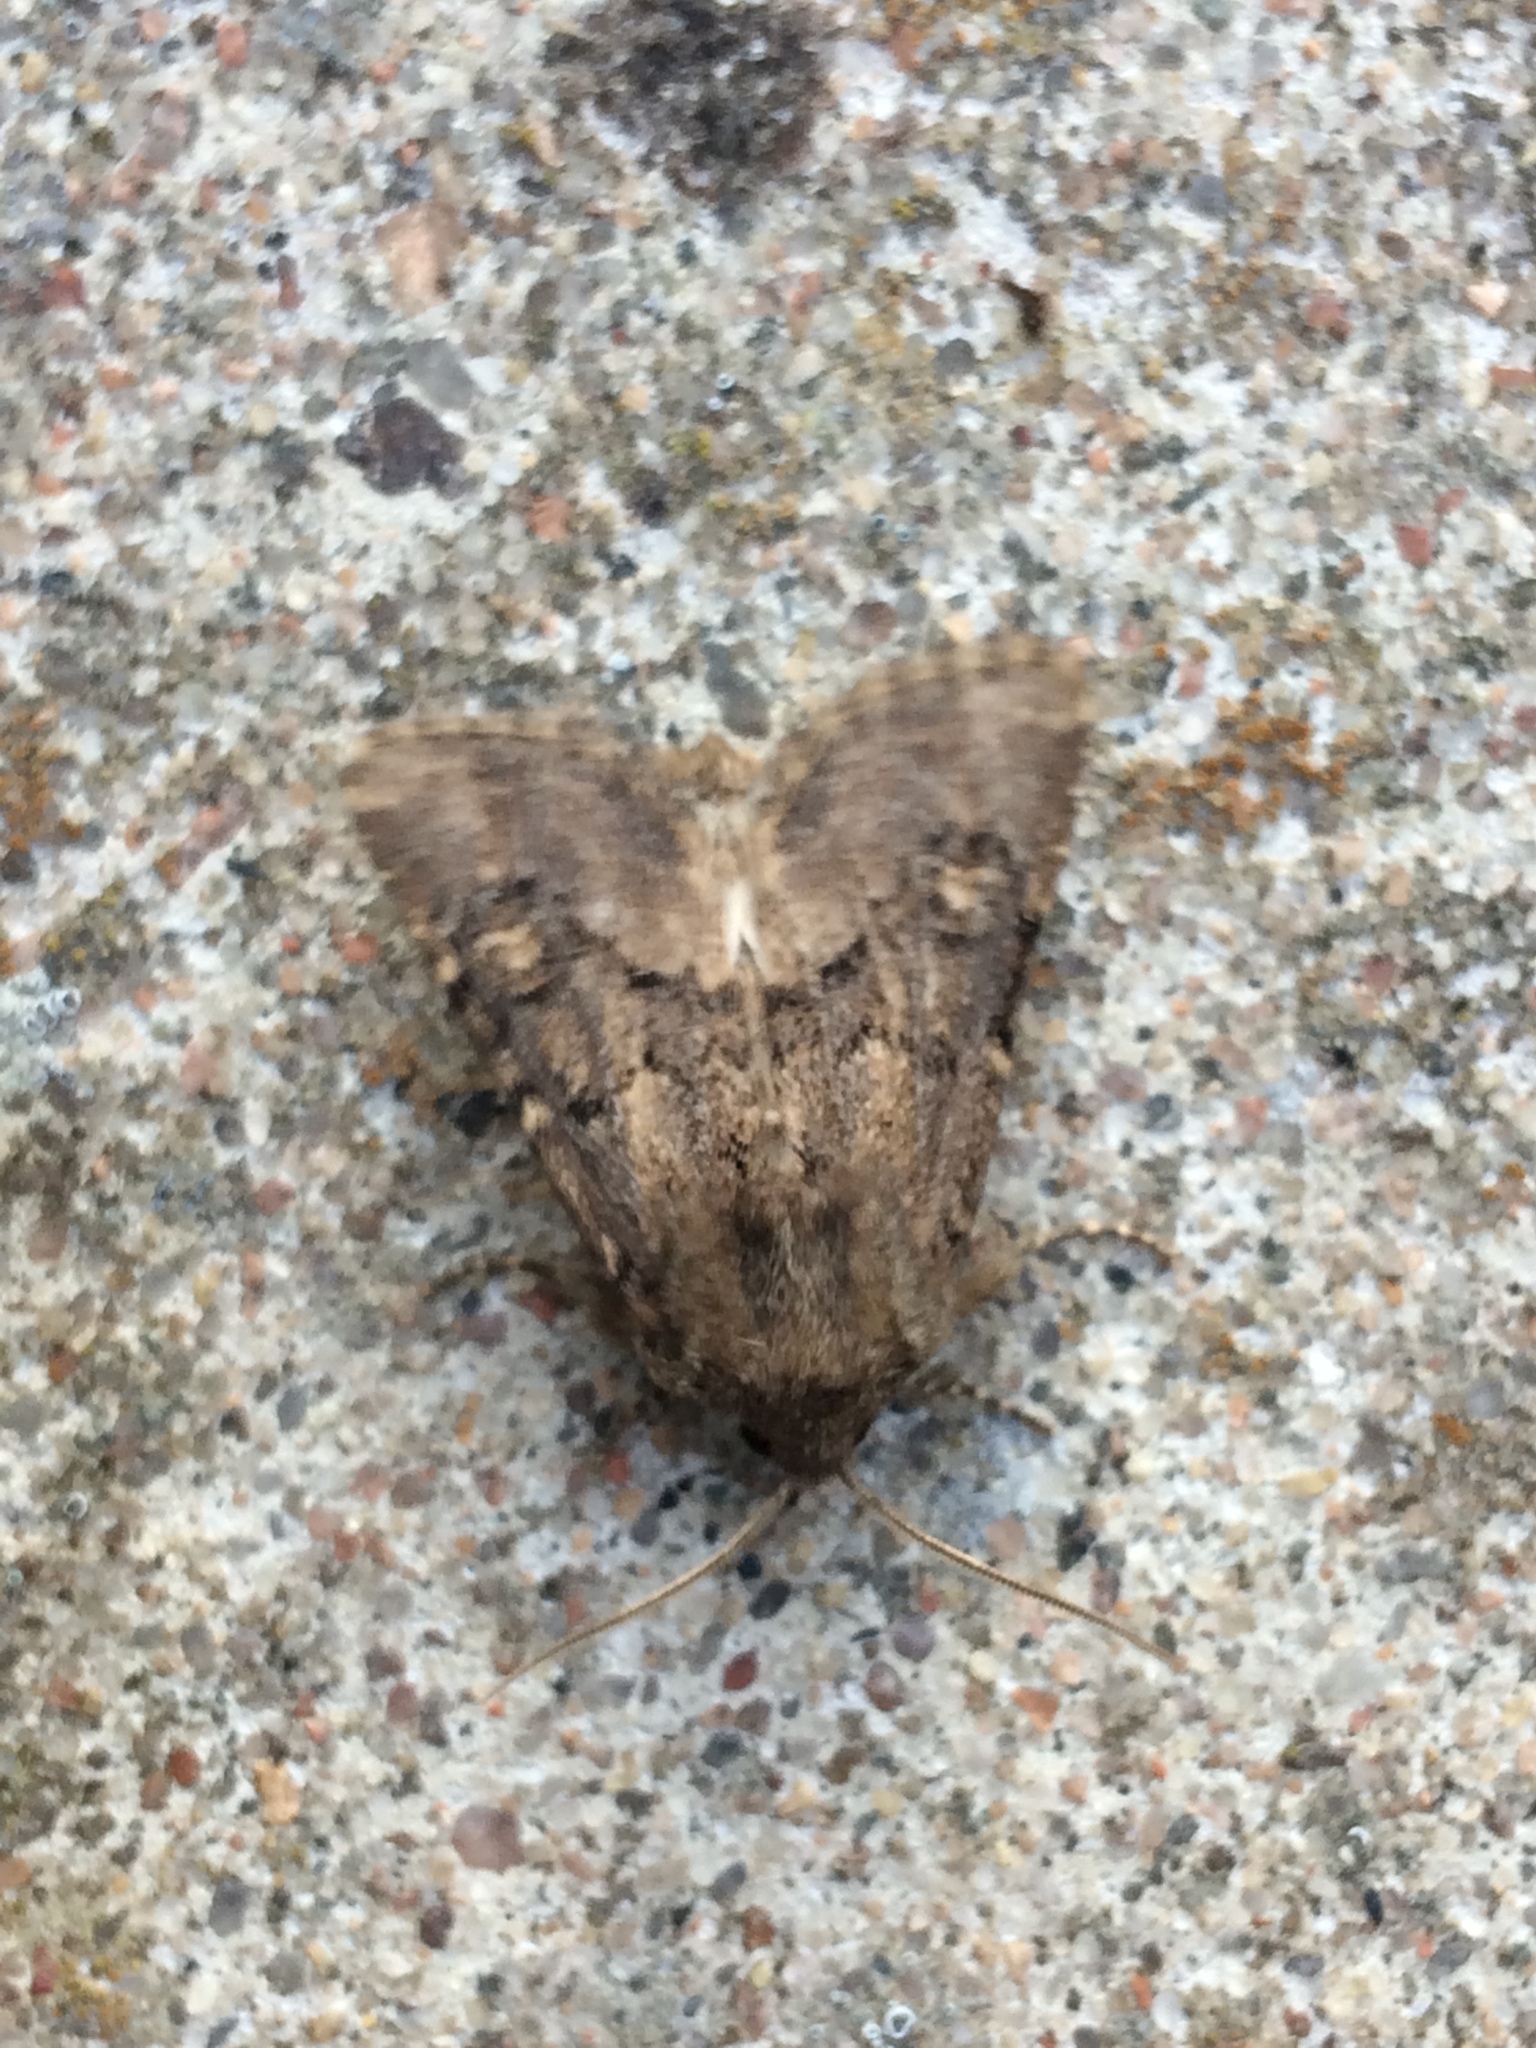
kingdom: Animalia
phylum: Arthropoda
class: Insecta
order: Lepidoptera
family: Noctuidae
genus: Luperina
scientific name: Luperina testacea
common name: Flounced rustic
